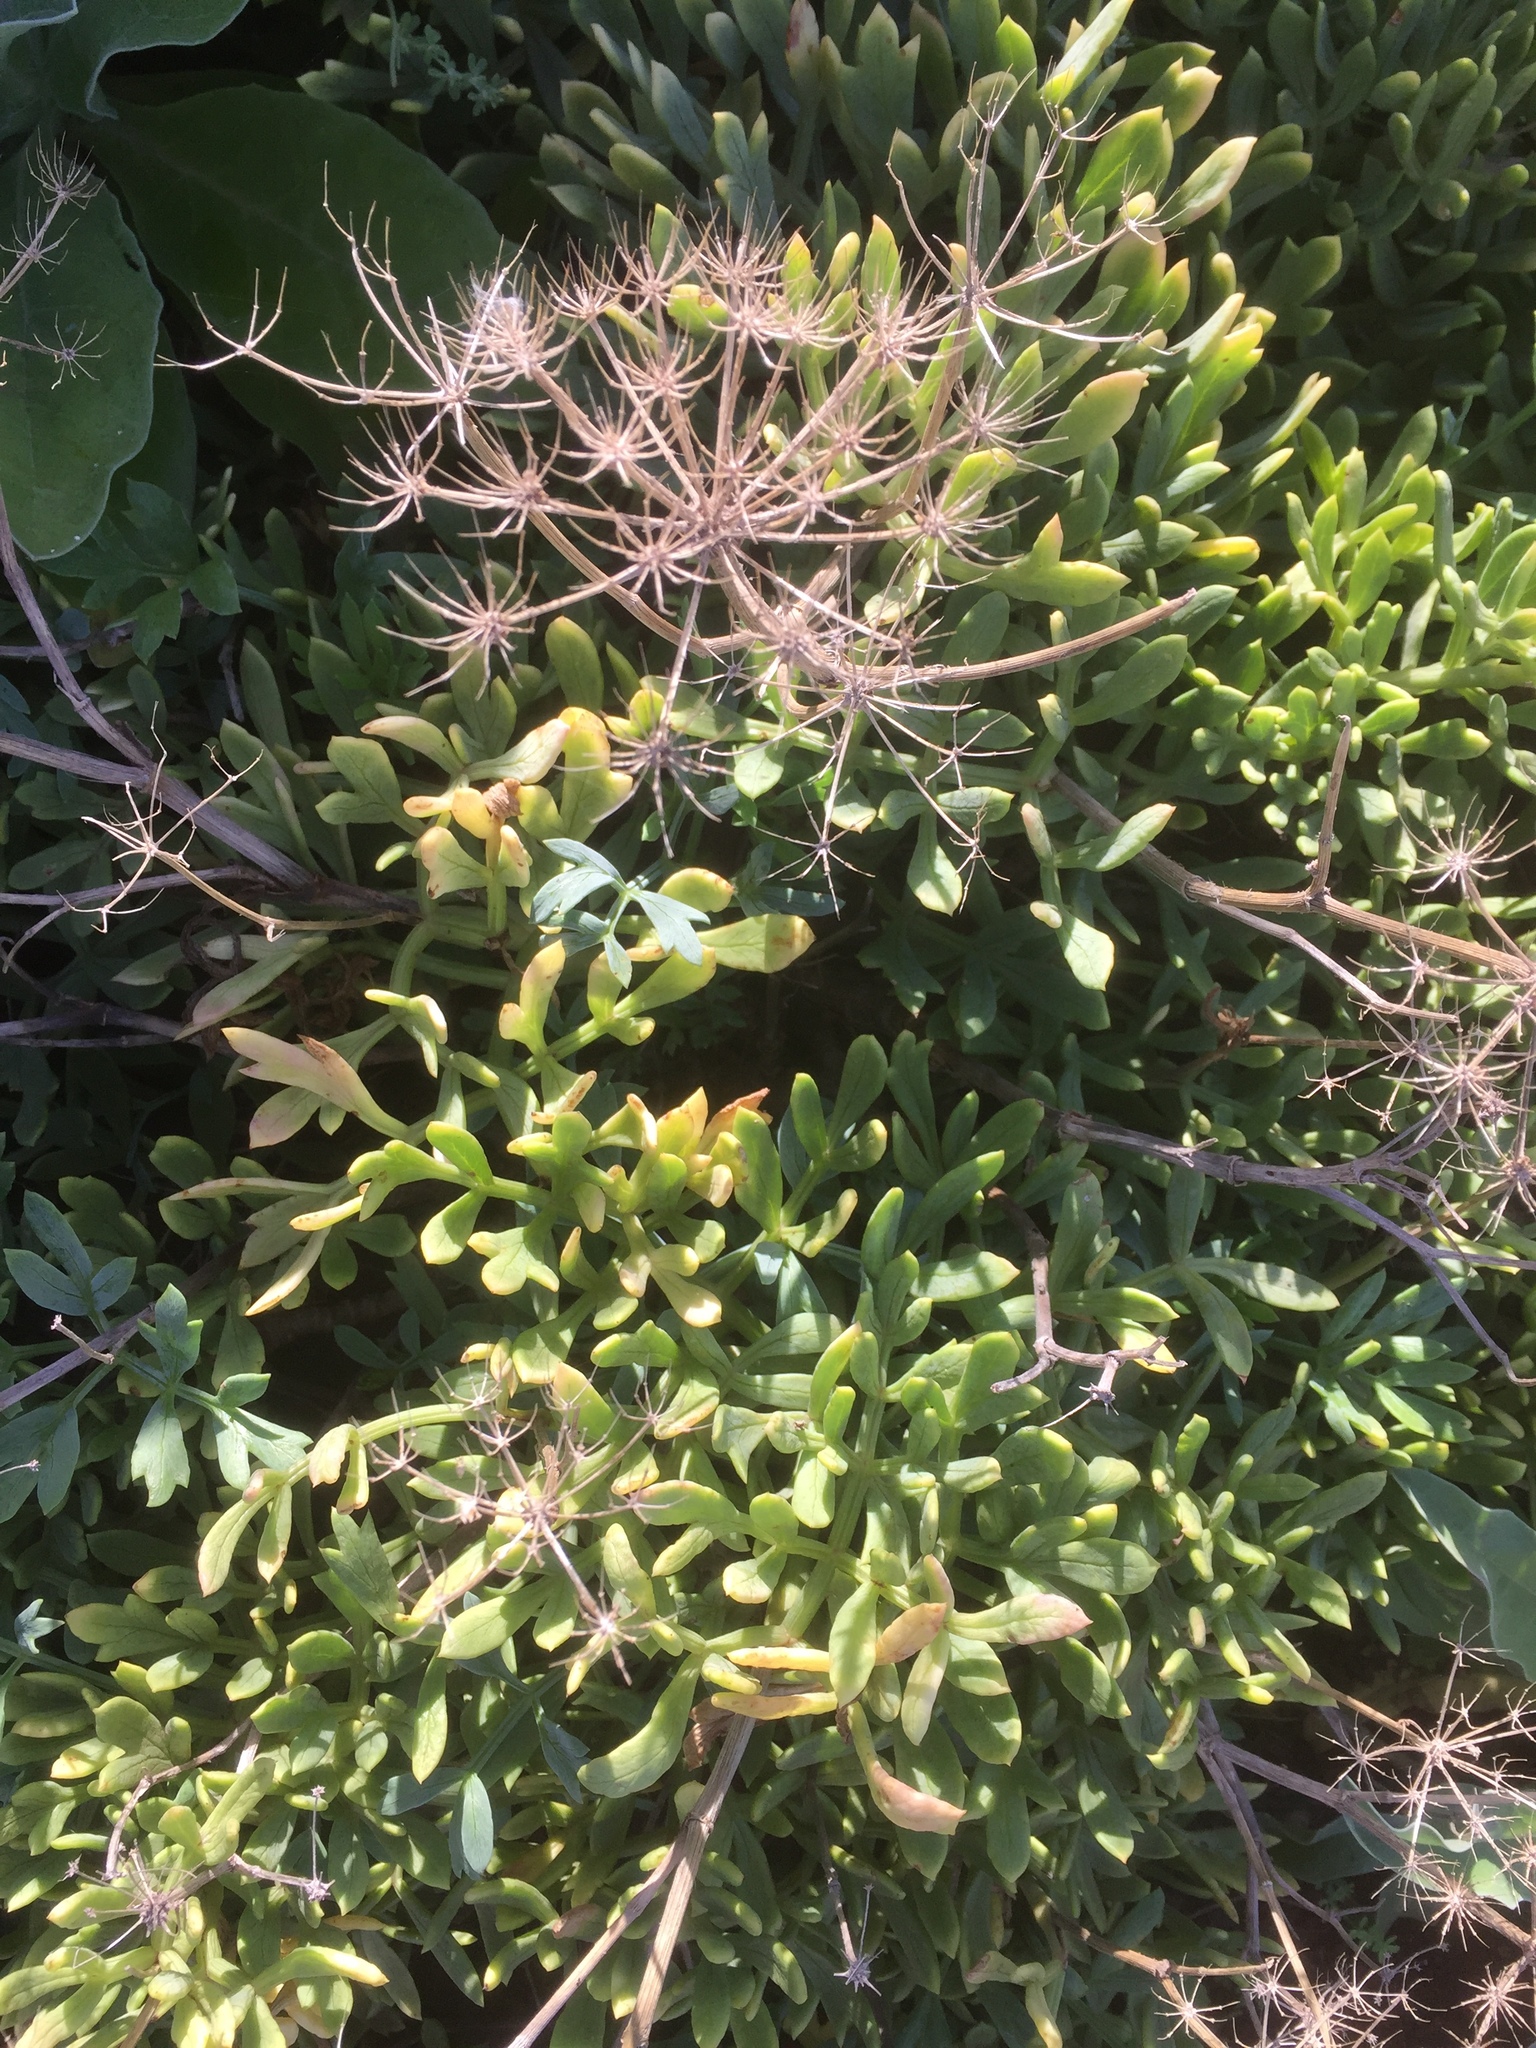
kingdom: Plantae
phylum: Tracheophyta
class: Magnoliopsida
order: Apiales
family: Apiaceae
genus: Crithmum
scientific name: Crithmum maritimum
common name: Rock samphire
